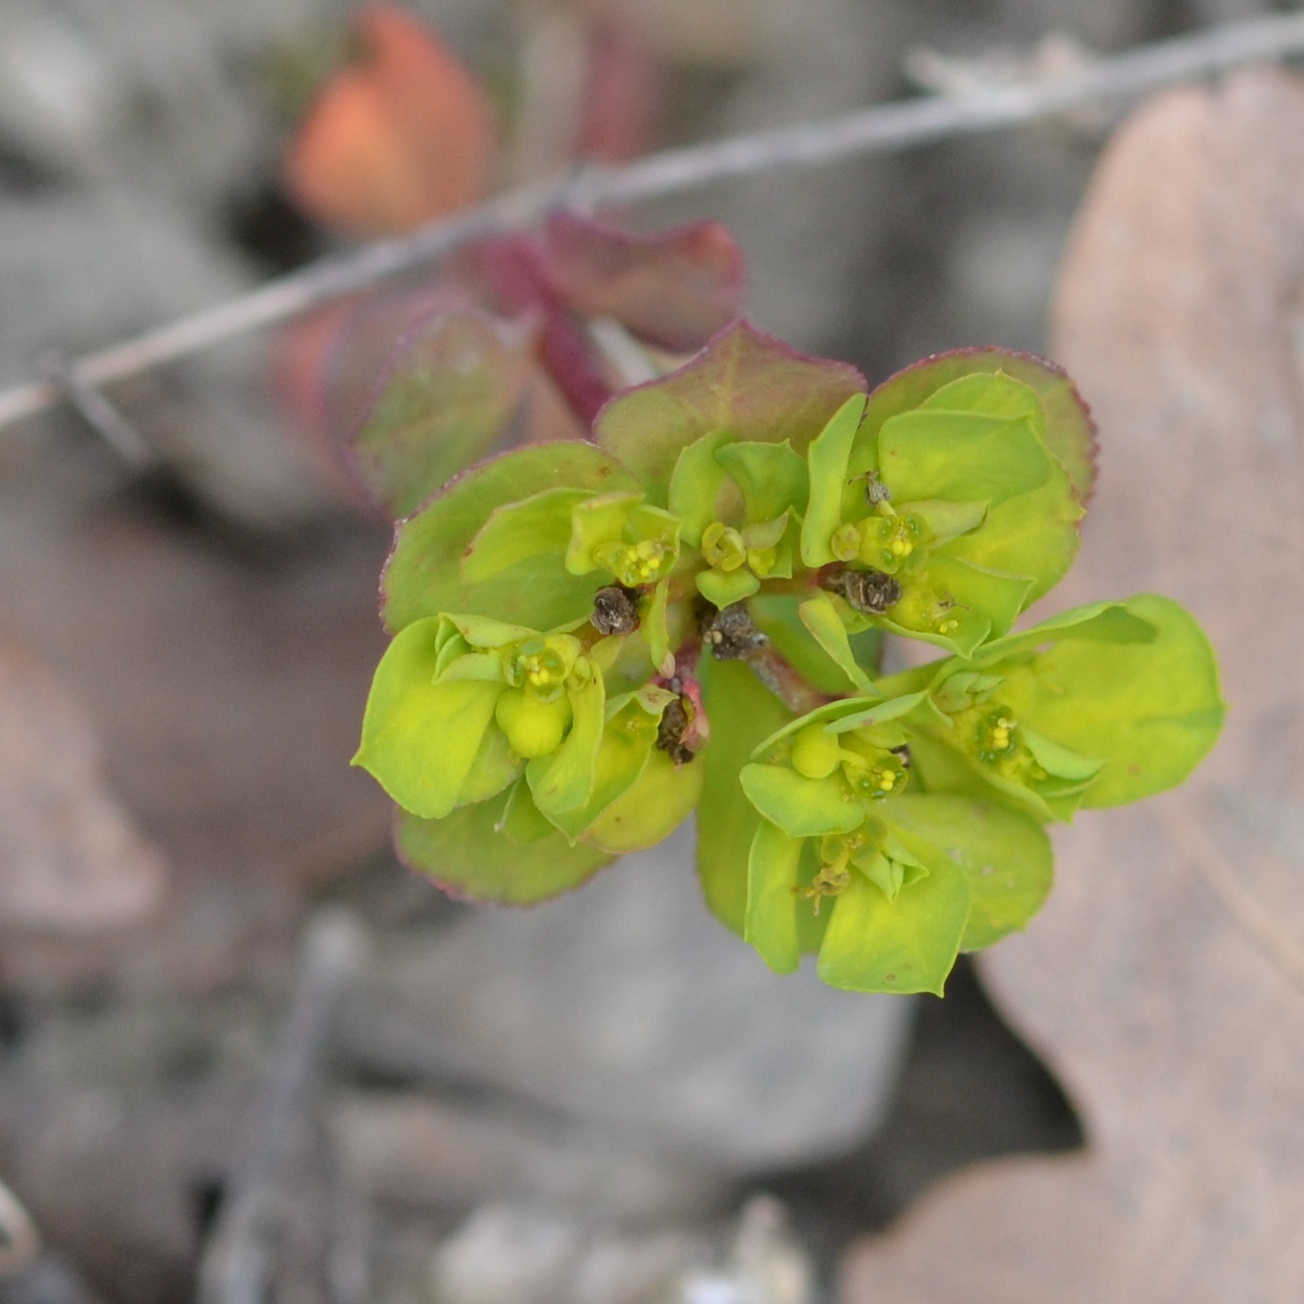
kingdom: Plantae
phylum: Tracheophyta
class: Magnoliopsida
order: Malpighiales
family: Euphorbiaceae
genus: Euphorbia
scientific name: Euphorbia helioscopia
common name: Sun spurge
